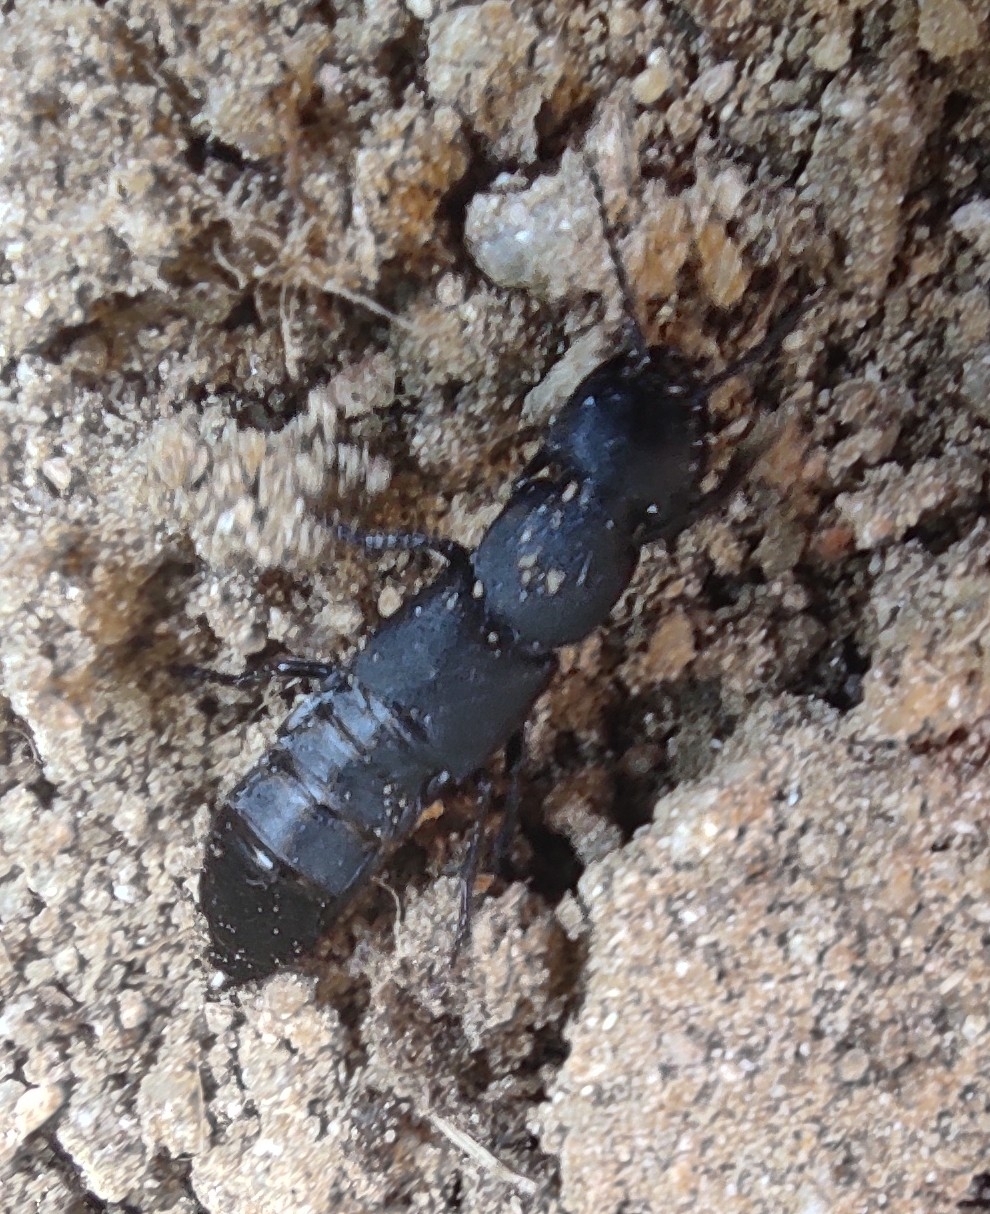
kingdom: Animalia
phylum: Arthropoda
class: Insecta
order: Coleoptera
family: Staphylinidae
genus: Ocypus
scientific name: Ocypus olens
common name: Devil's coach-horse
